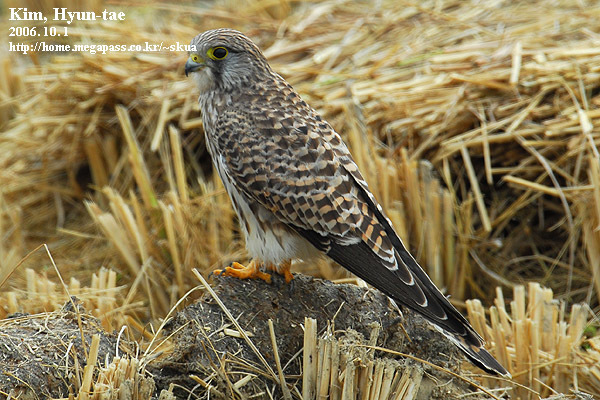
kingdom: Animalia
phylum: Chordata
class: Aves
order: Falconiformes
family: Falconidae
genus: Falco
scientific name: Falco tinnunculus
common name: Common kestrel
